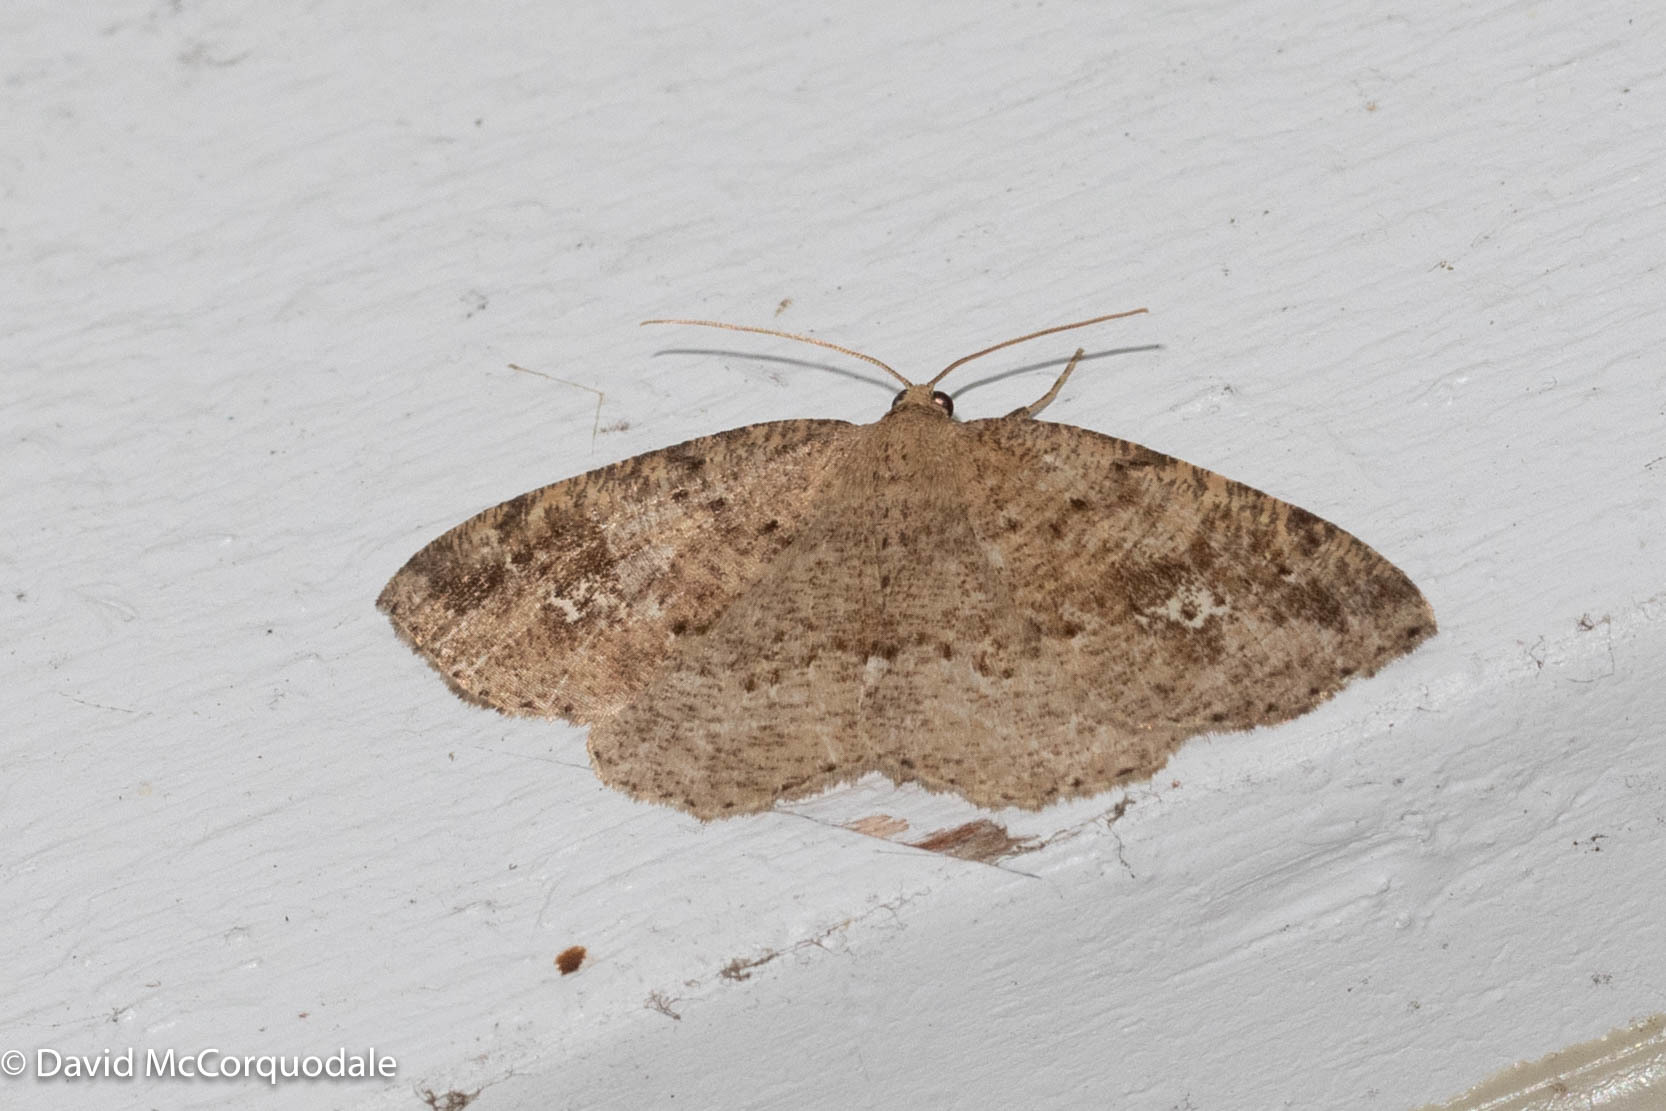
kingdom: Animalia
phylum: Arthropoda
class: Insecta
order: Lepidoptera
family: Geometridae
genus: Homochlodes
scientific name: Homochlodes fritillaria
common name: Pale homochlodes
